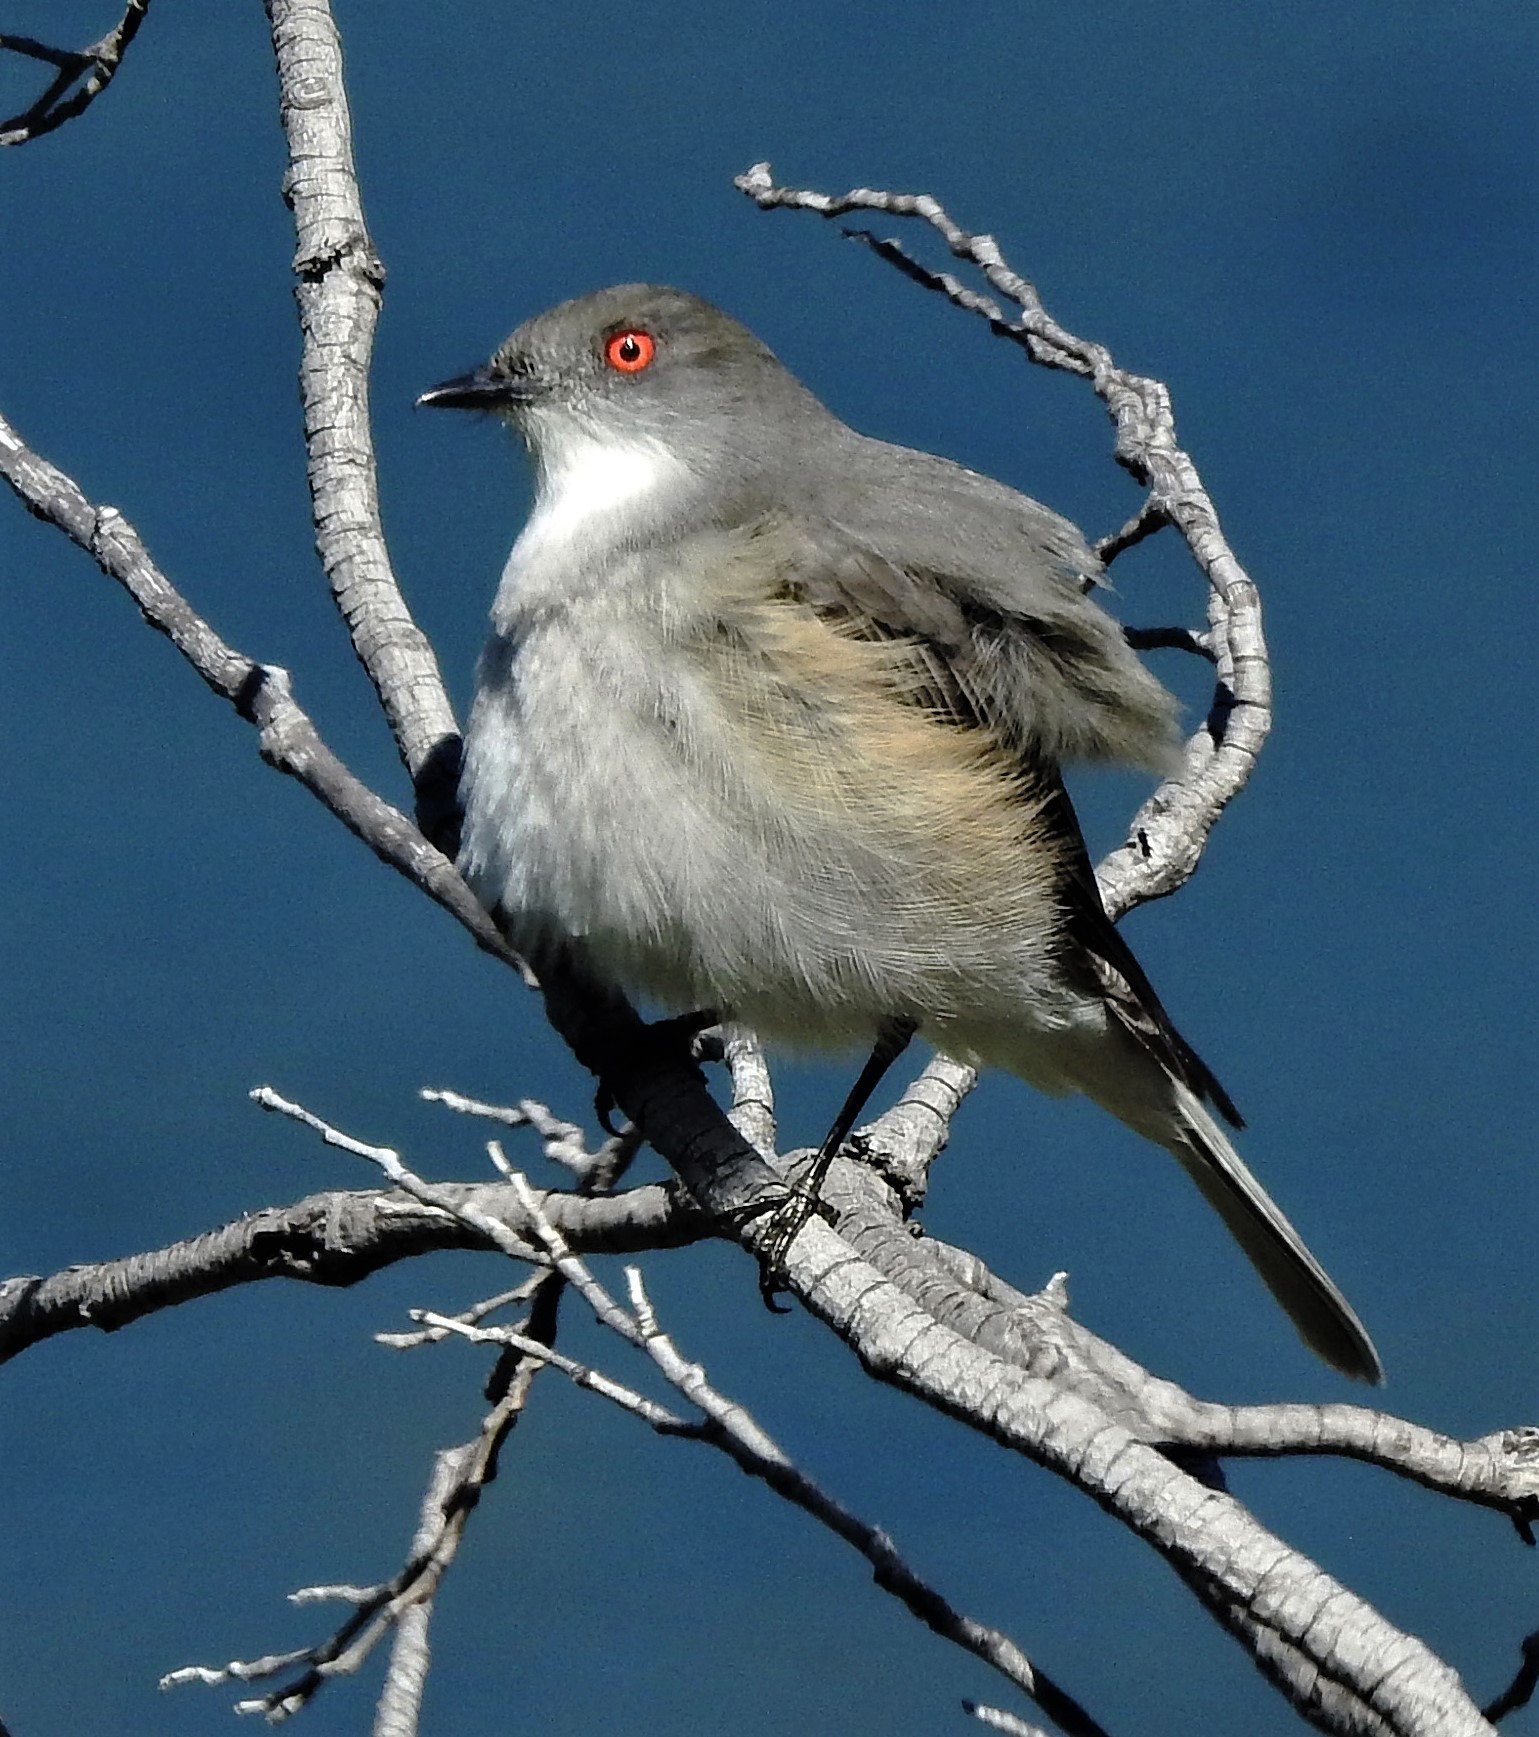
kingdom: Animalia
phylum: Chordata
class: Aves
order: Passeriformes
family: Tyrannidae
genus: Xolmis
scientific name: Xolmis pyrope
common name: Fire-eyed diucon
